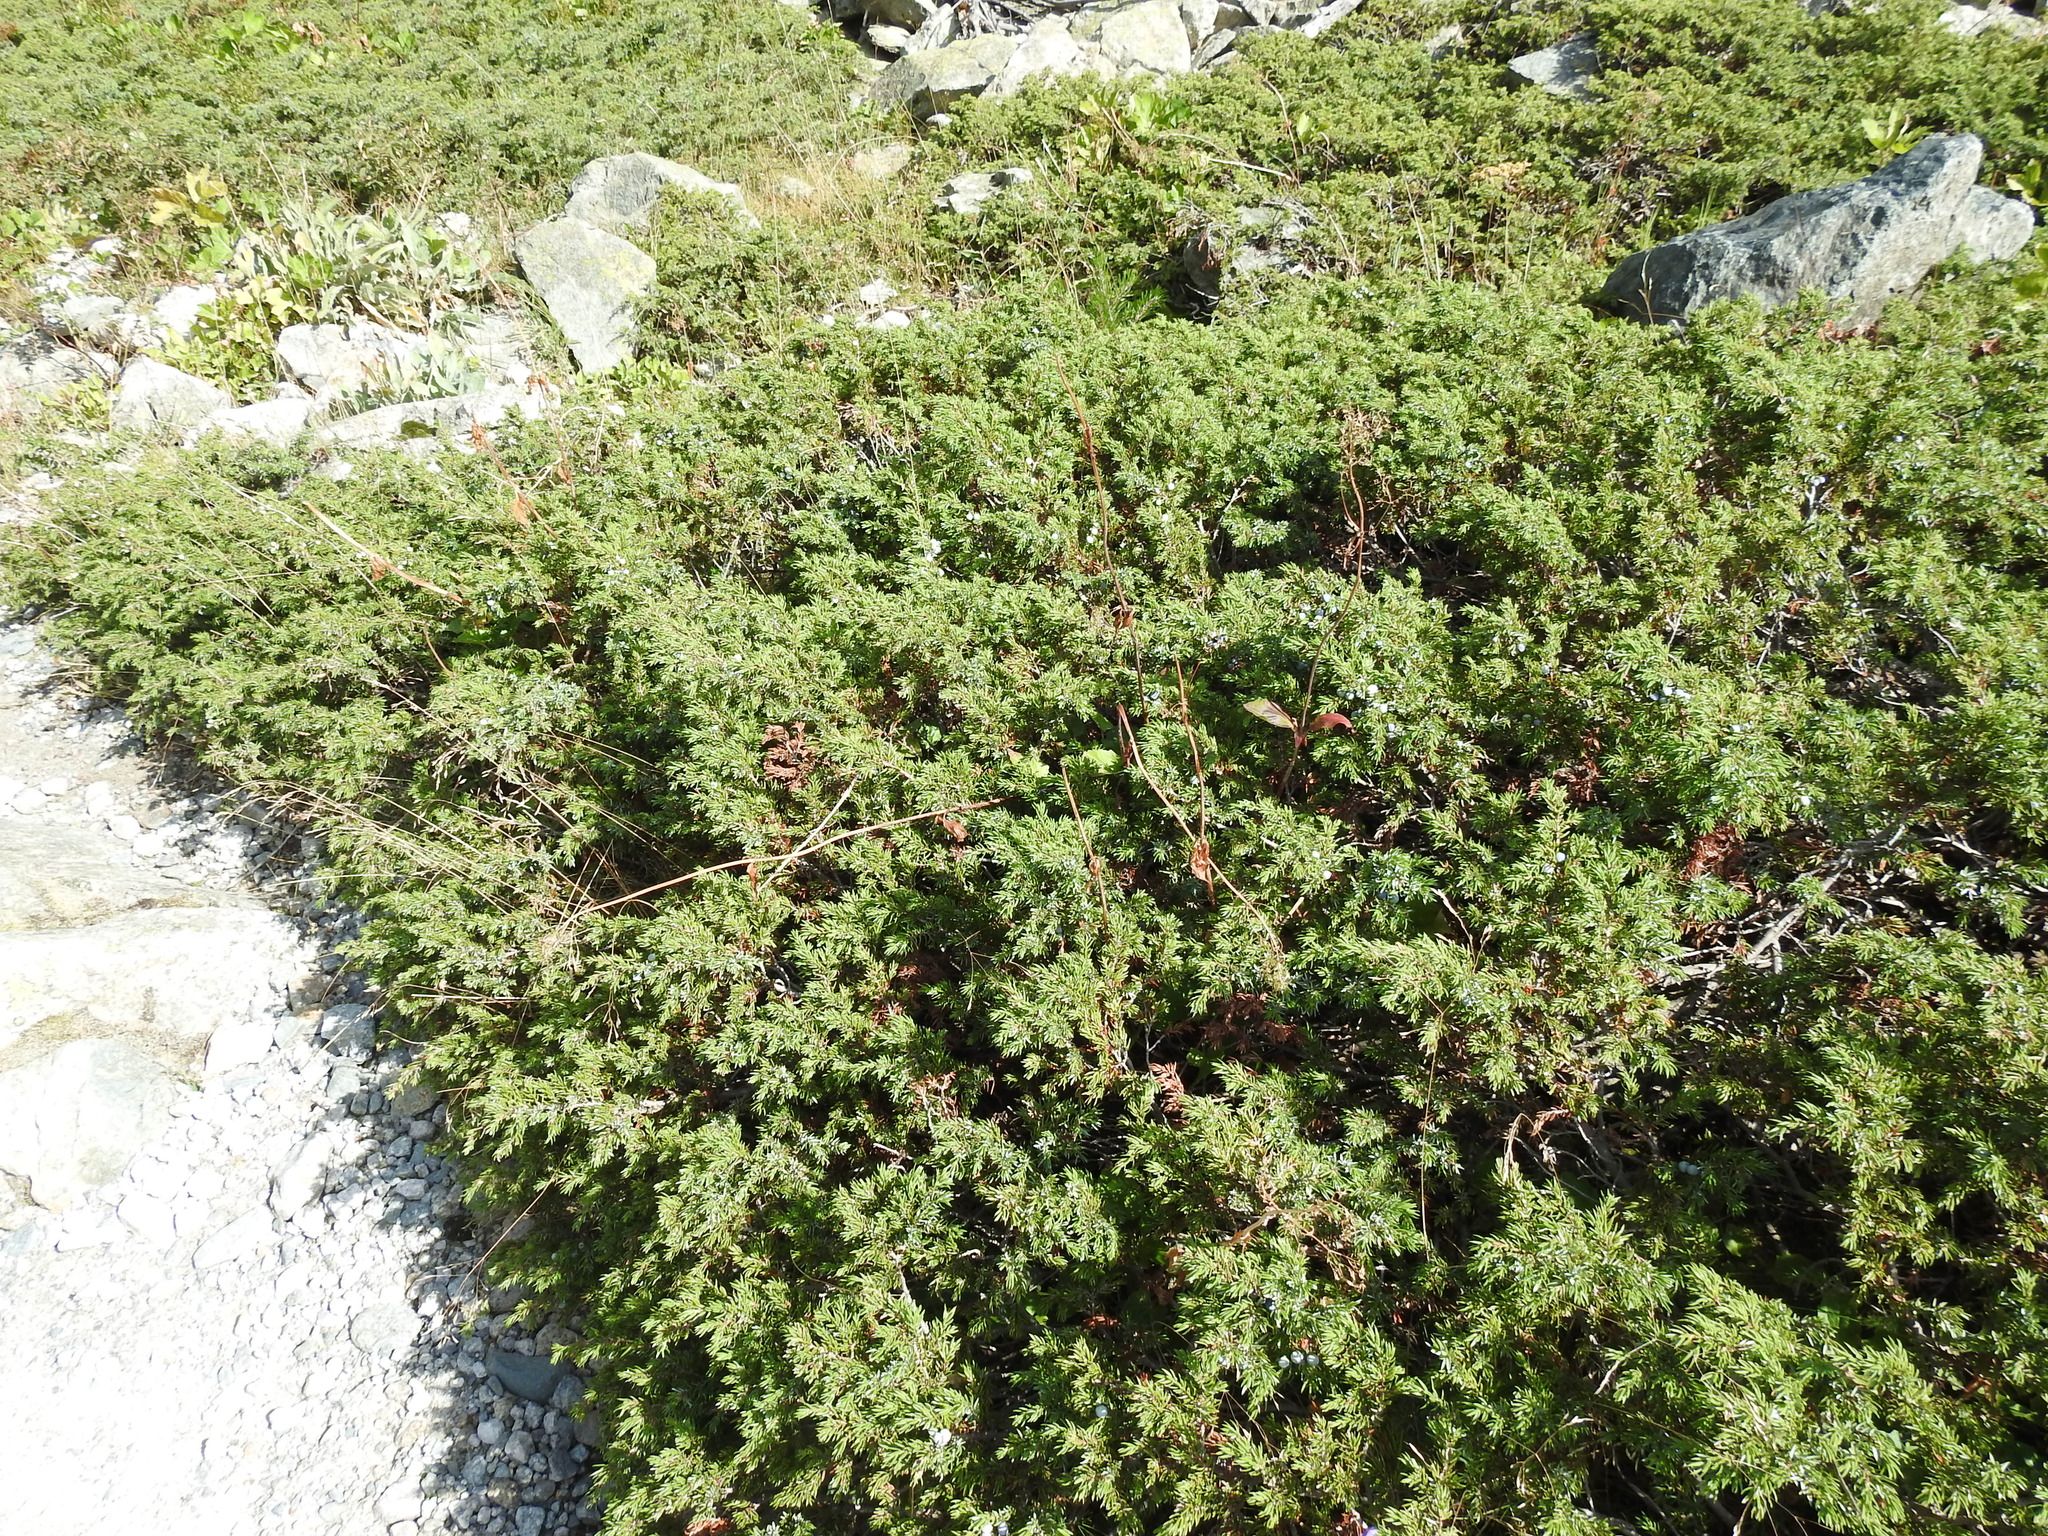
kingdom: Plantae
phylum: Tracheophyta
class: Pinopsida
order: Pinales
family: Cupressaceae
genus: Juniperus
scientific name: Juniperus communis
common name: Common juniper
